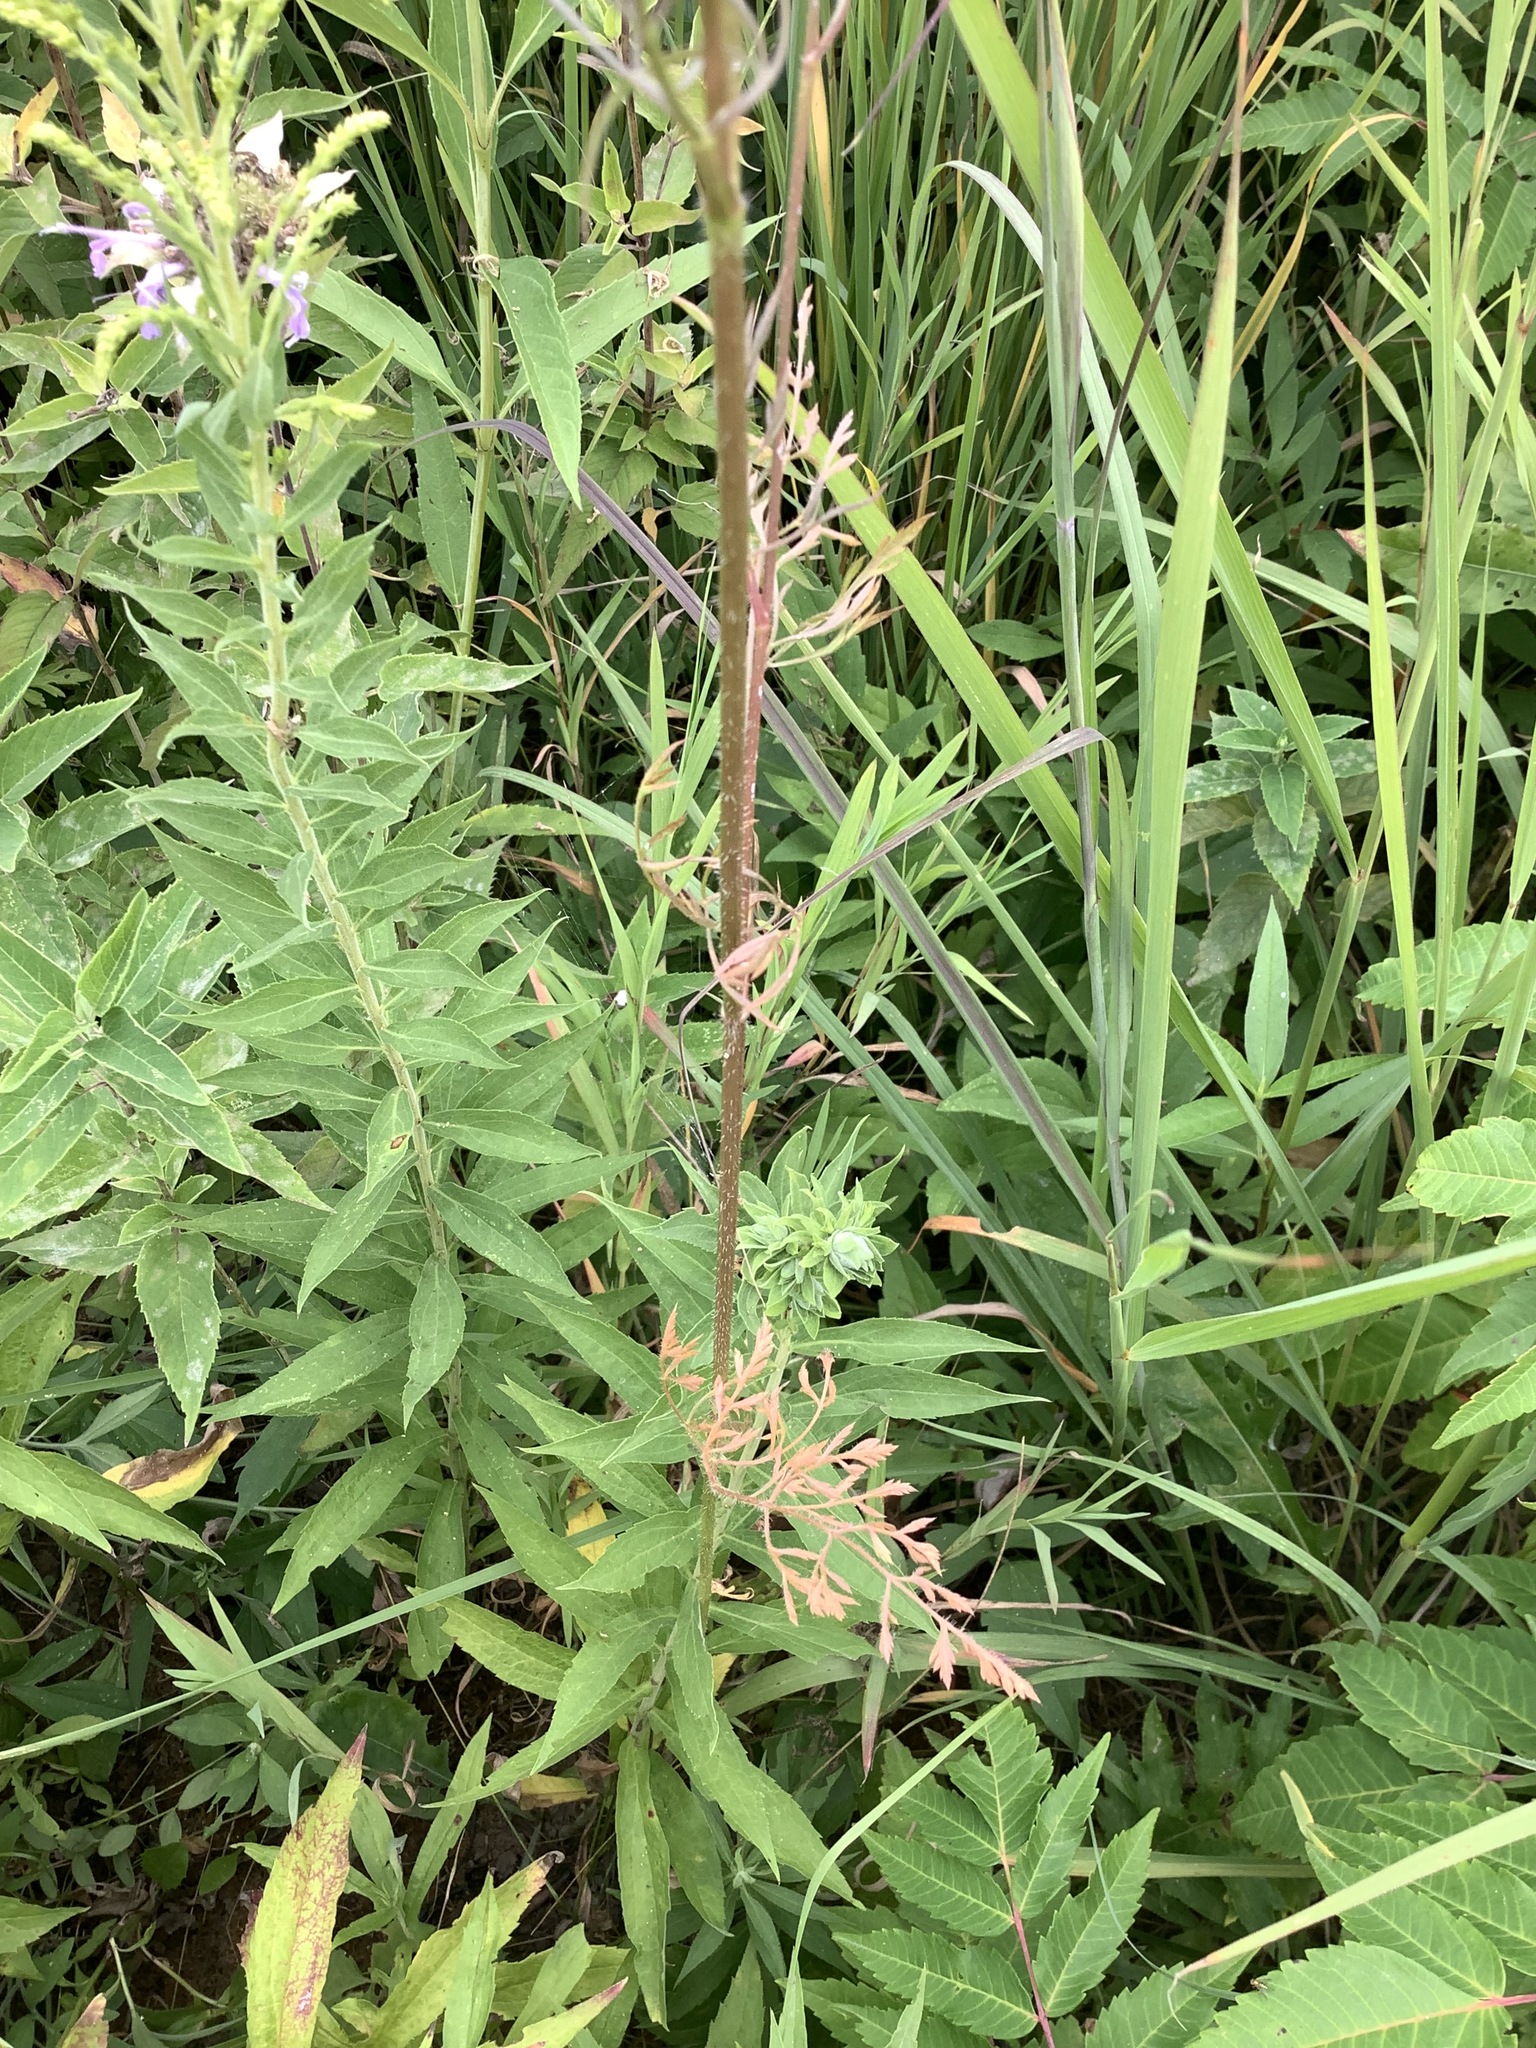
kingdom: Plantae
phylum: Tracheophyta
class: Magnoliopsida
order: Apiales
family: Apiaceae
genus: Daucus
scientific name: Daucus carota
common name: Wild carrot
